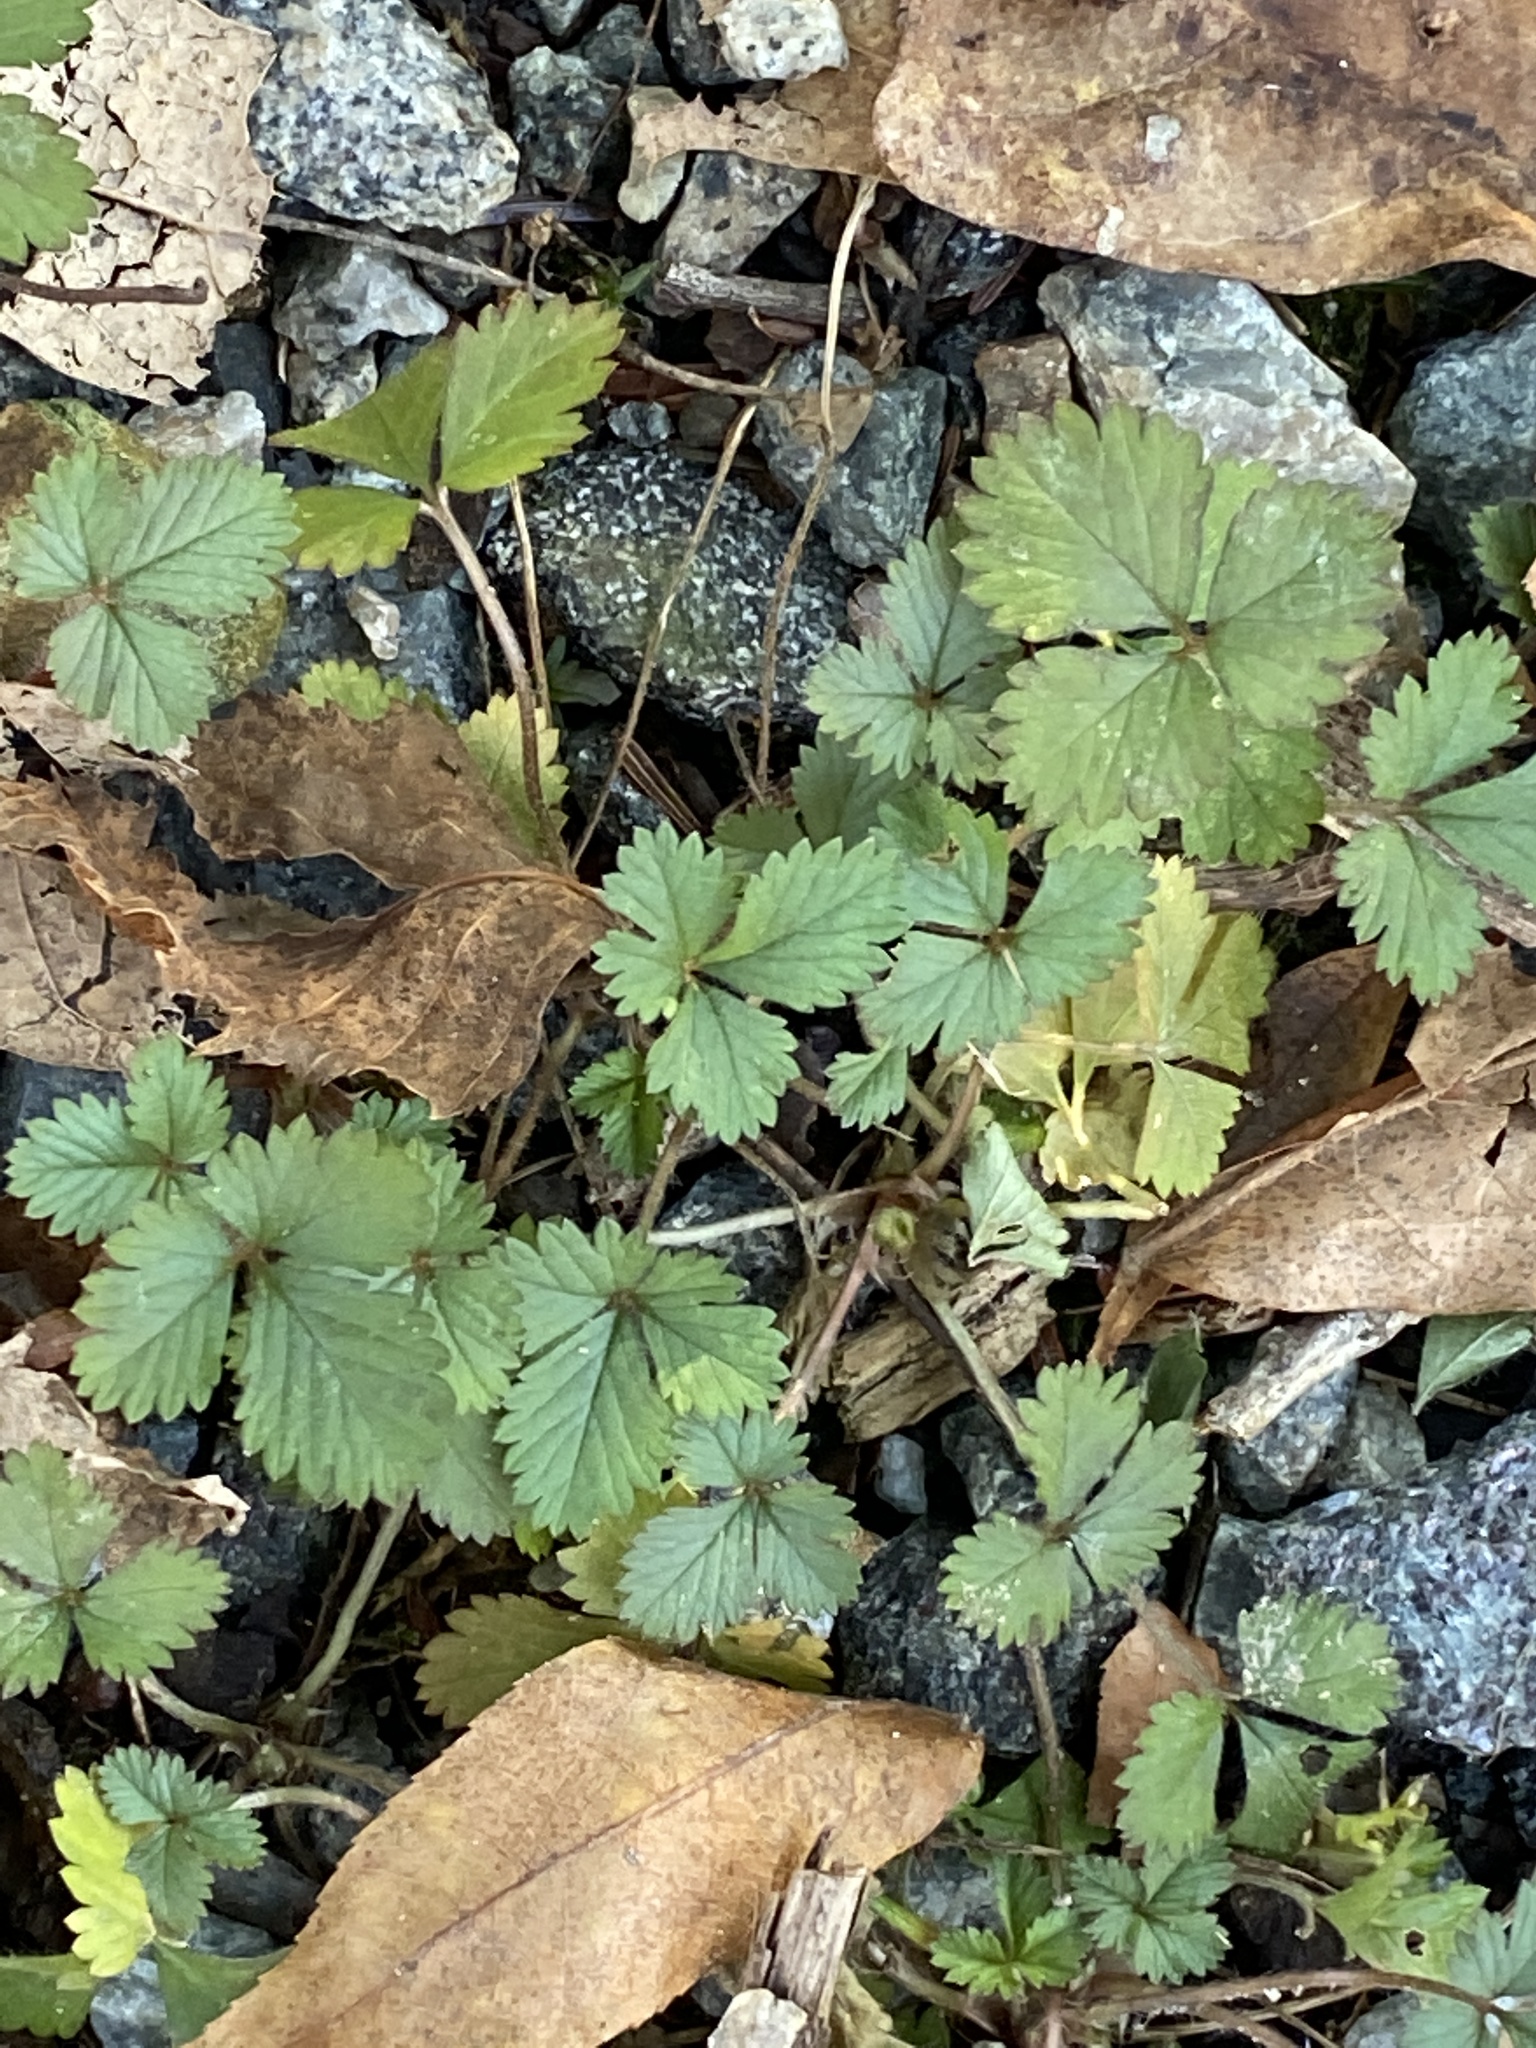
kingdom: Plantae
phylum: Tracheophyta
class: Magnoliopsida
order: Rosales
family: Rosaceae
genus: Potentilla
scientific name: Potentilla indica
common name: Yellow-flowered strawberry
